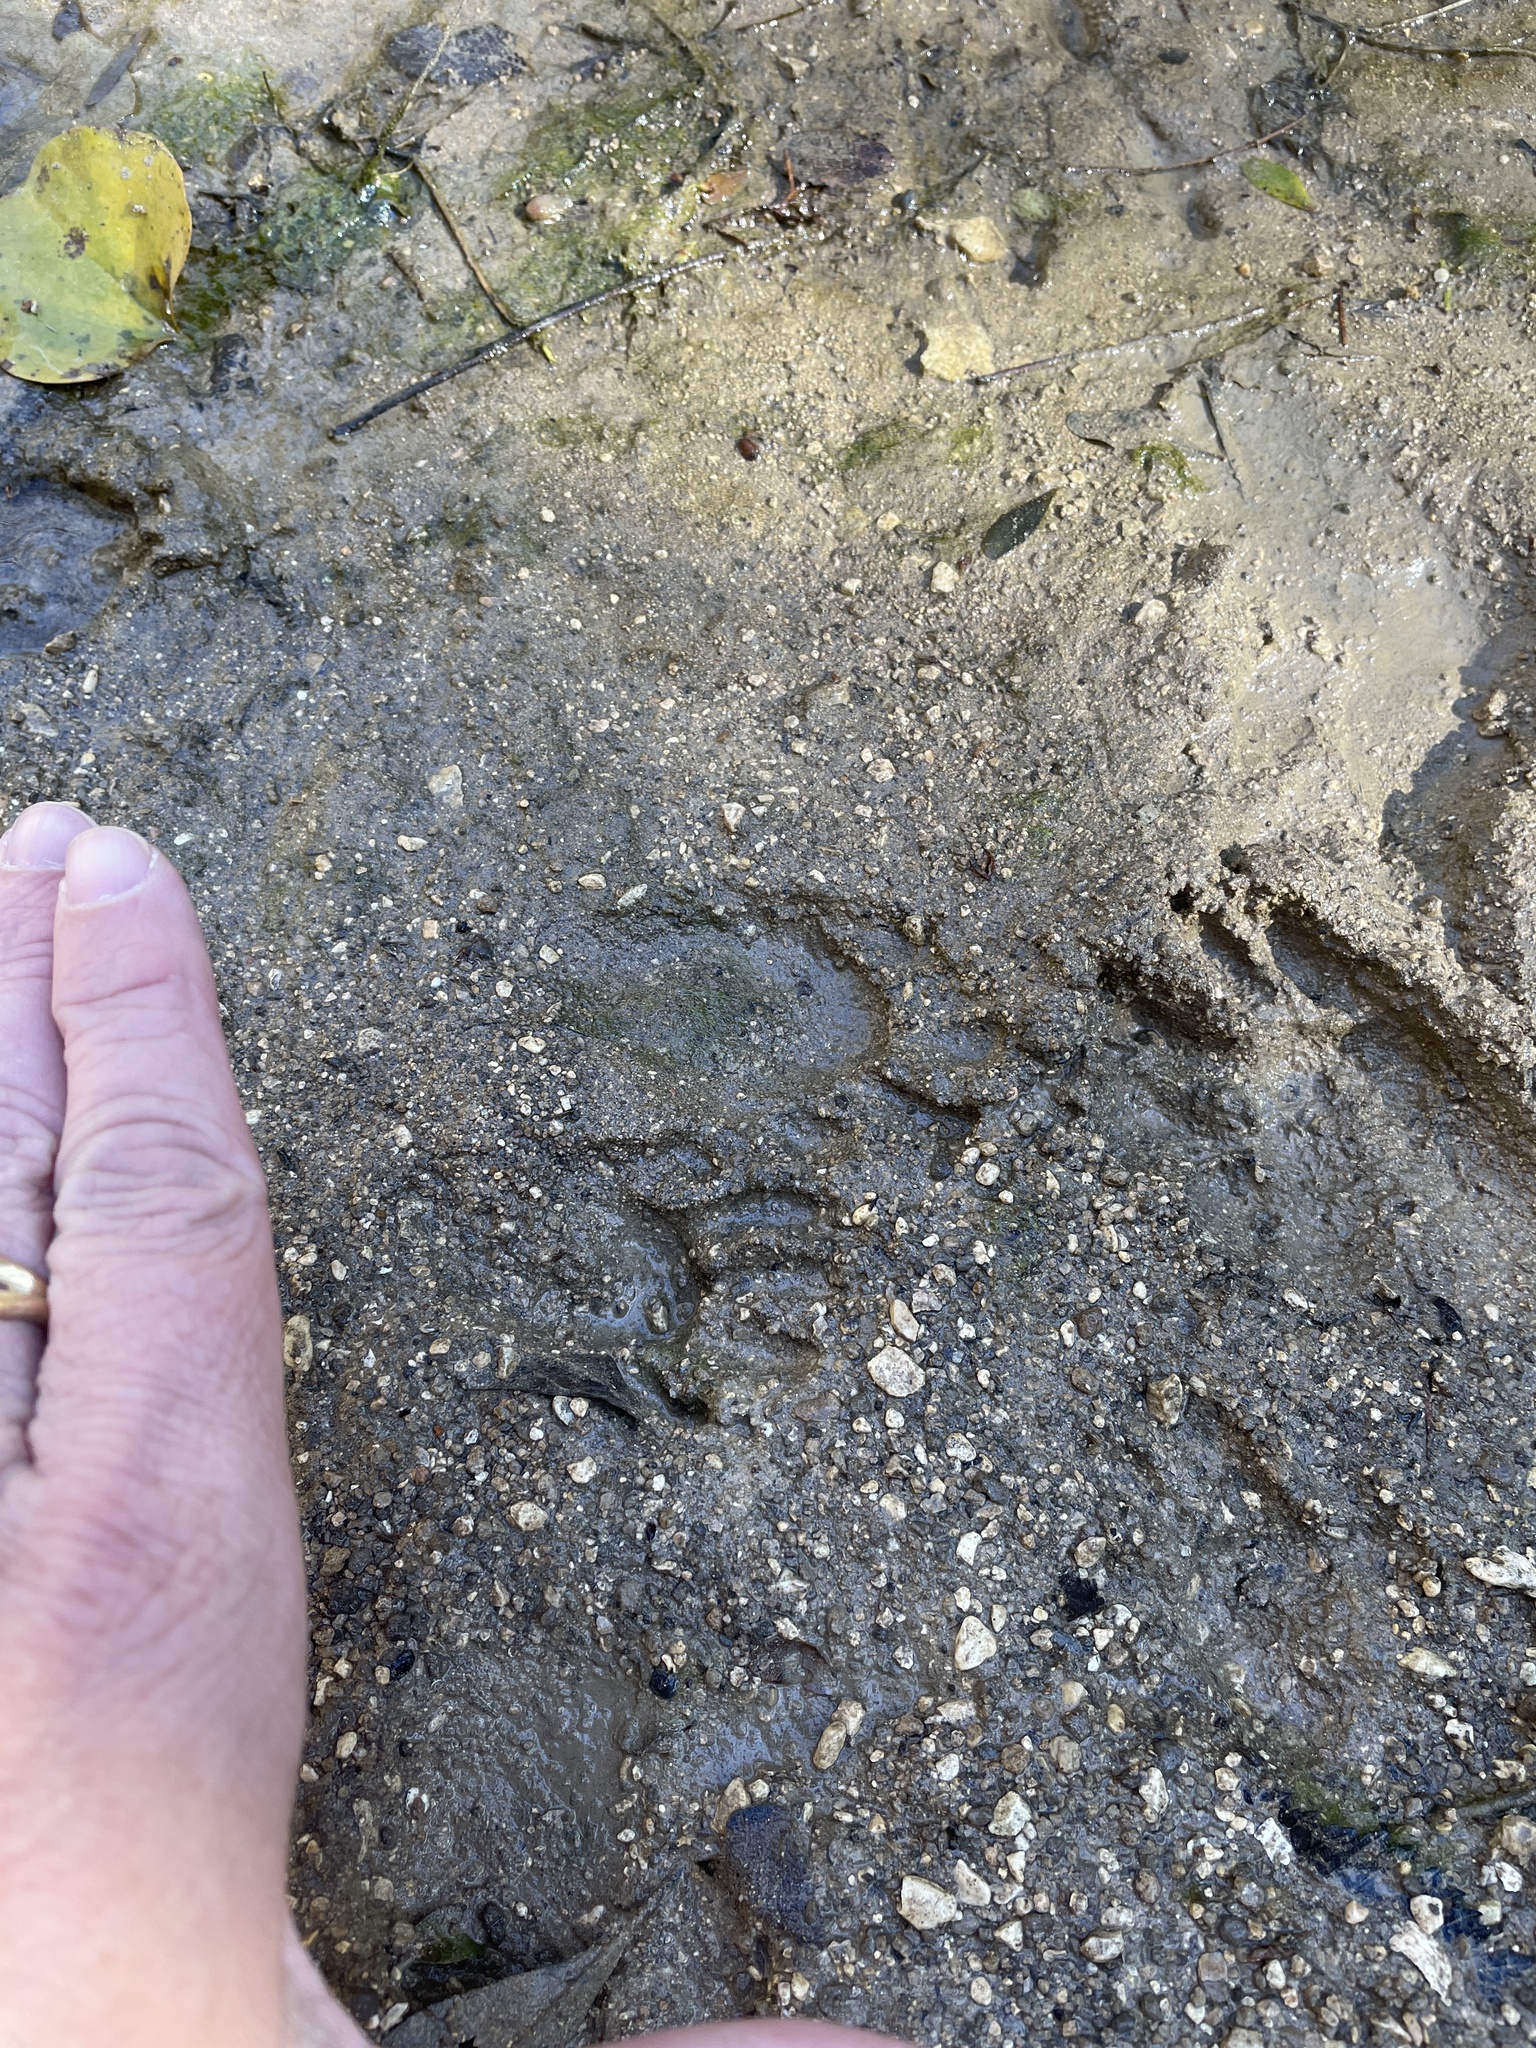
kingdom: Animalia
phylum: Chordata
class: Mammalia
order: Carnivora
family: Procyonidae
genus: Procyon
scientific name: Procyon lotor
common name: Raccoon
